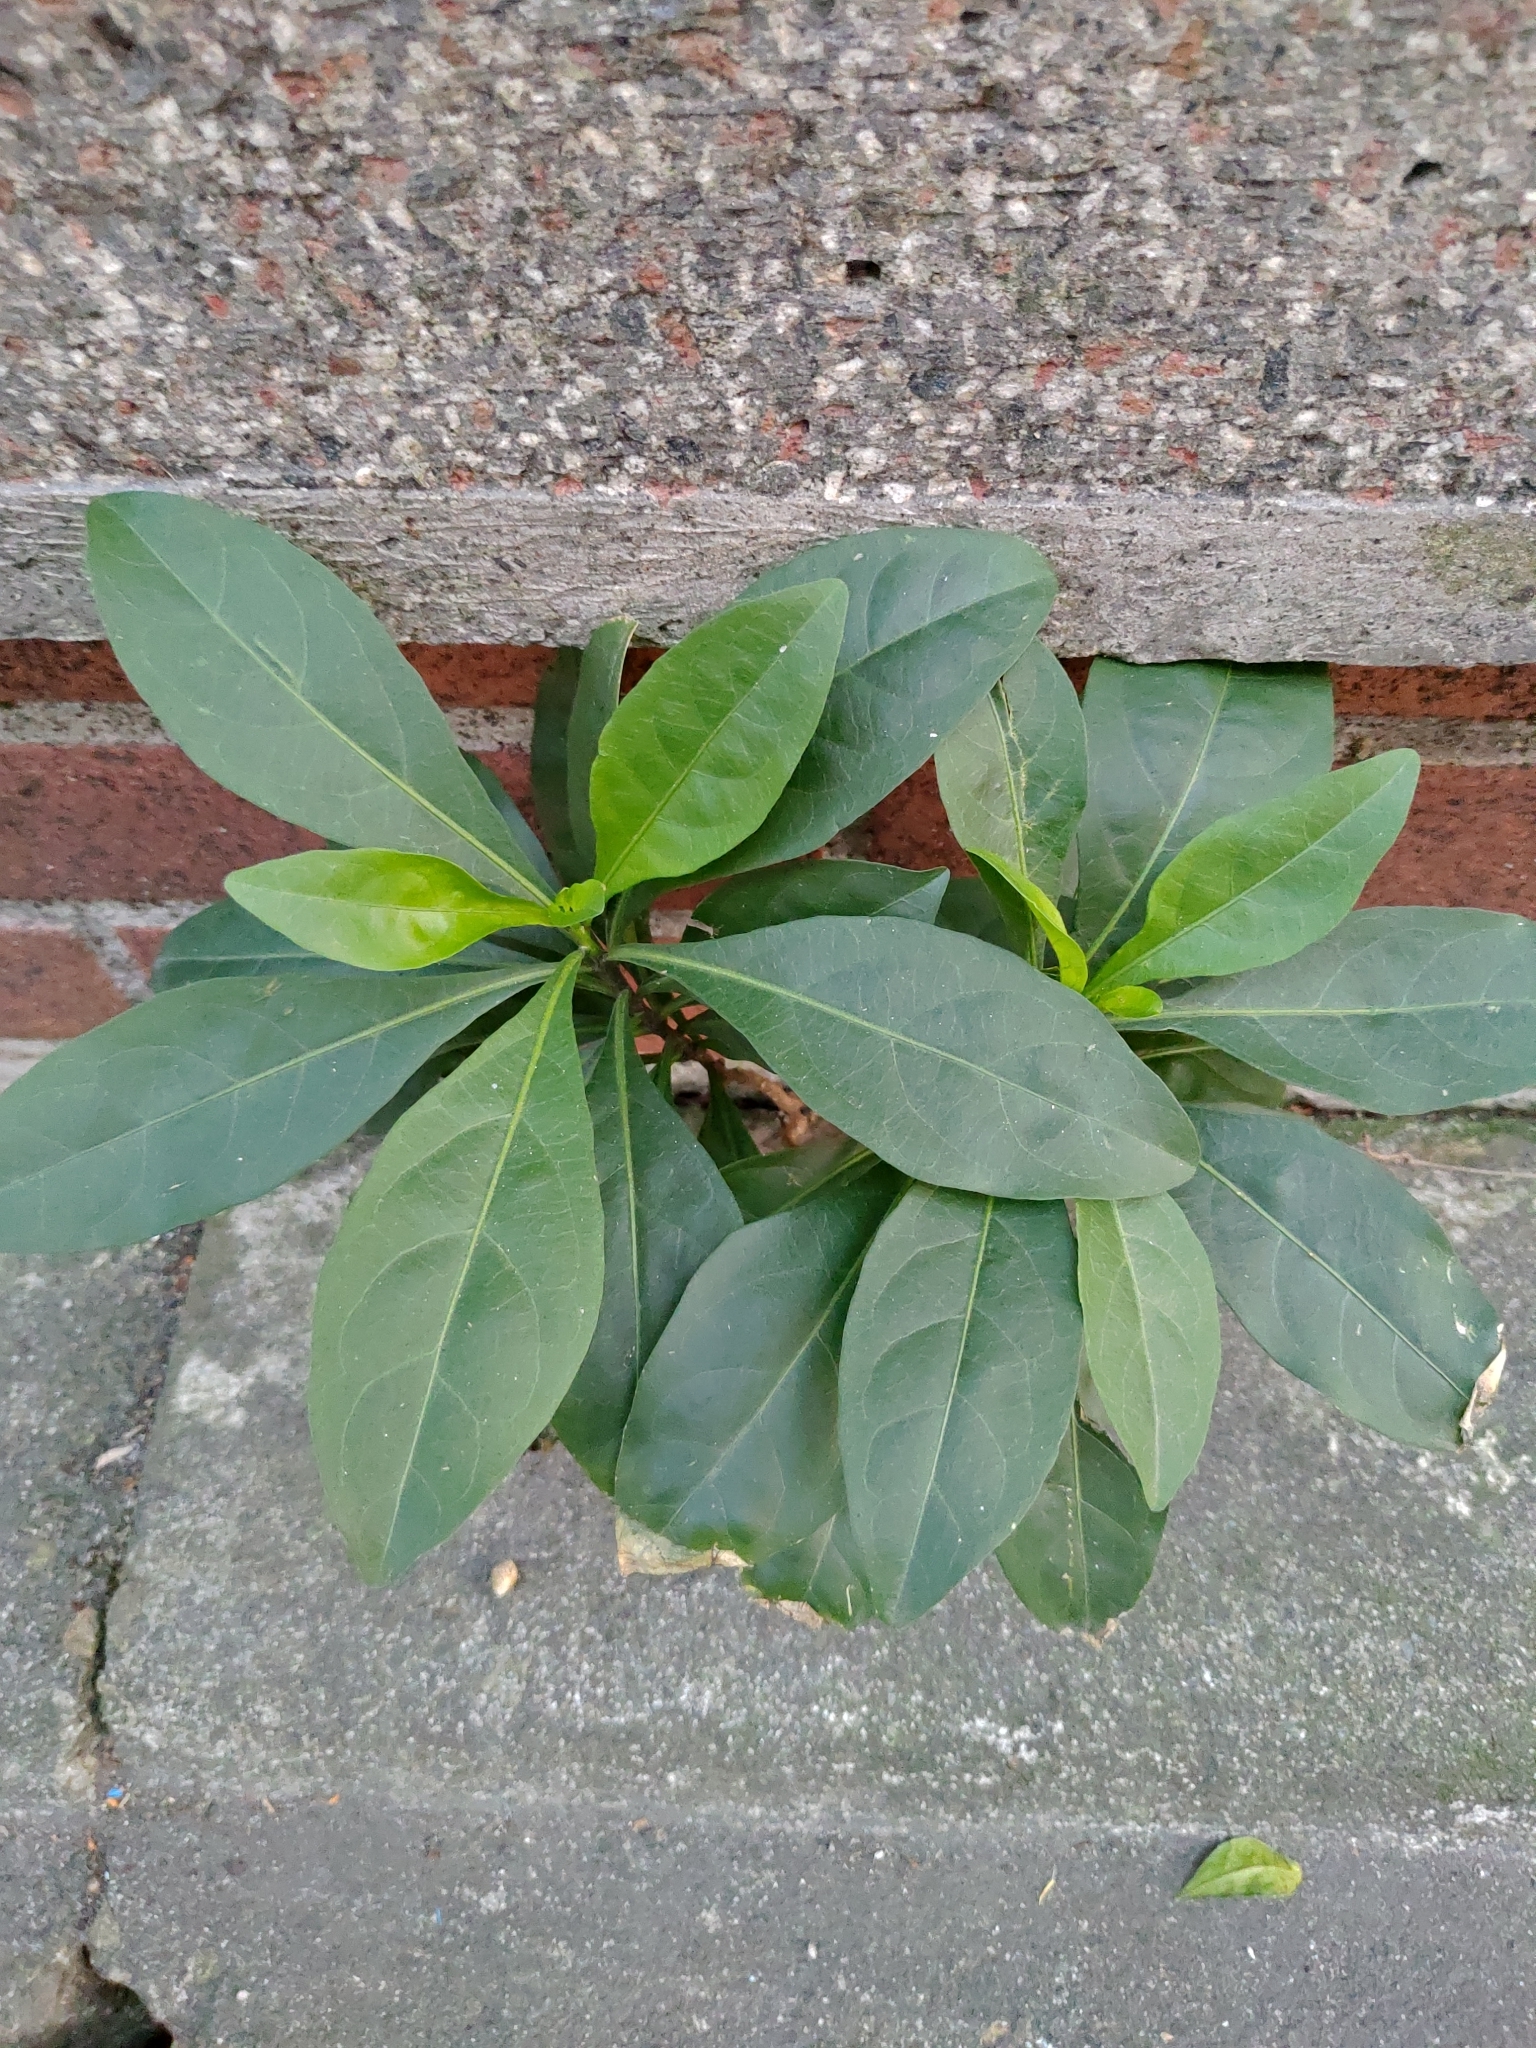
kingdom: Plantae
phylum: Tracheophyta
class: Magnoliopsida
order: Solanales
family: Solanaceae
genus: Solanum
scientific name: Solanum diphyllum
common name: Twoleaf nightshade
